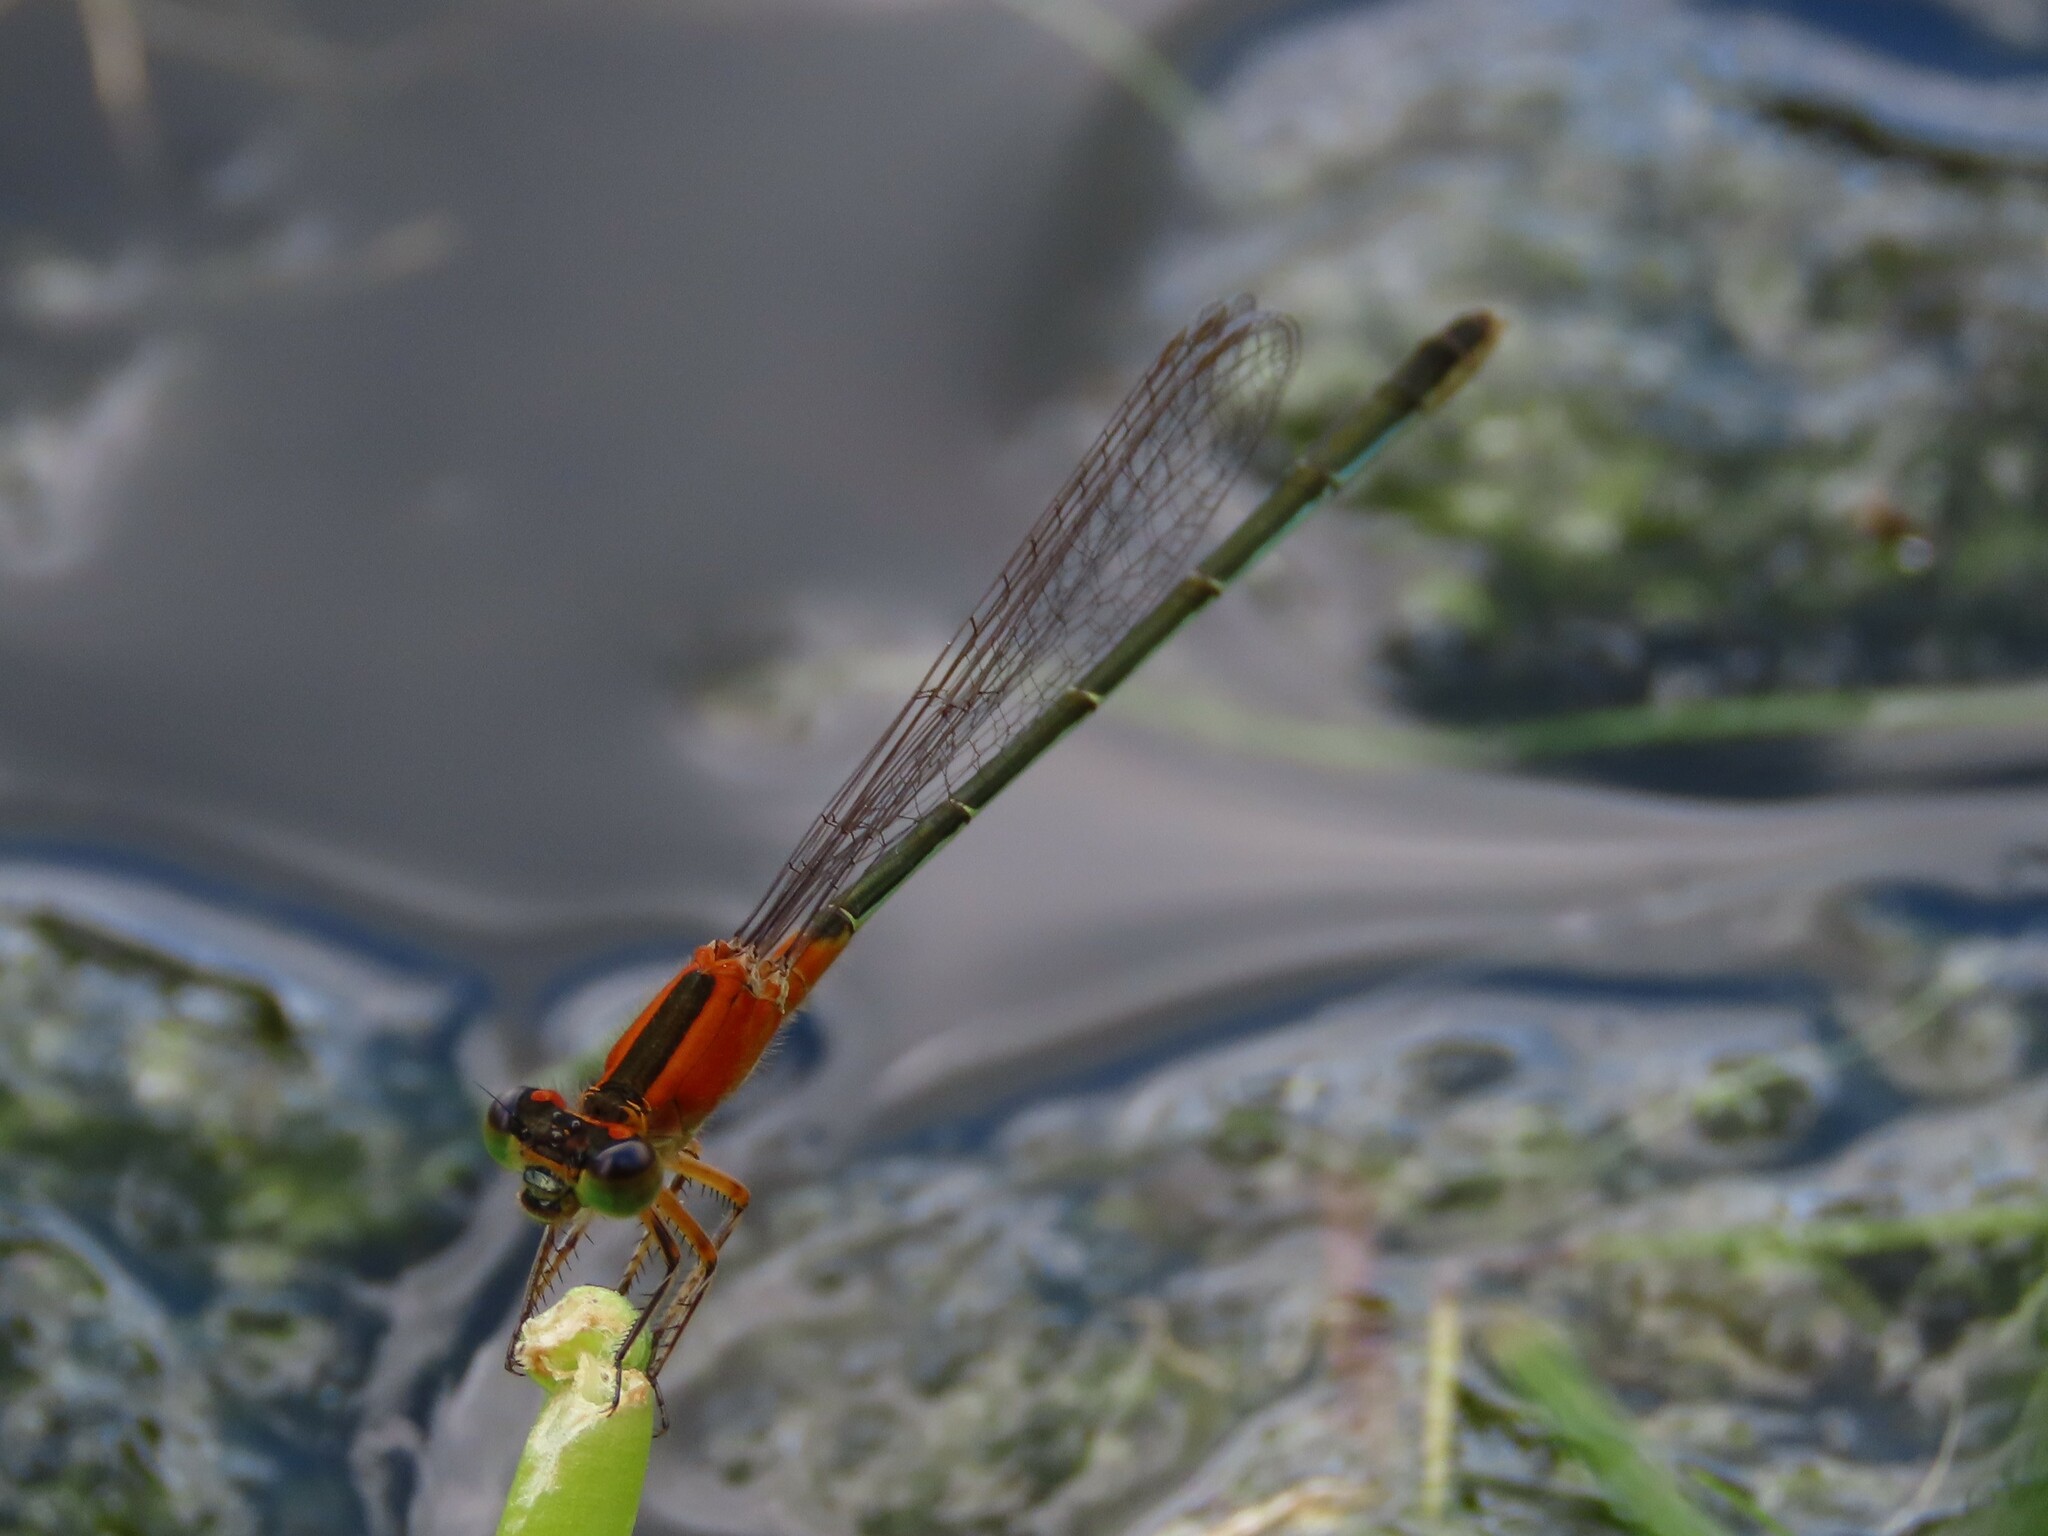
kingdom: Animalia
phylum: Arthropoda
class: Insecta
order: Odonata
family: Coenagrionidae
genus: Ischnura
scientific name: Ischnura ramburii
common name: Rambur's forktail
